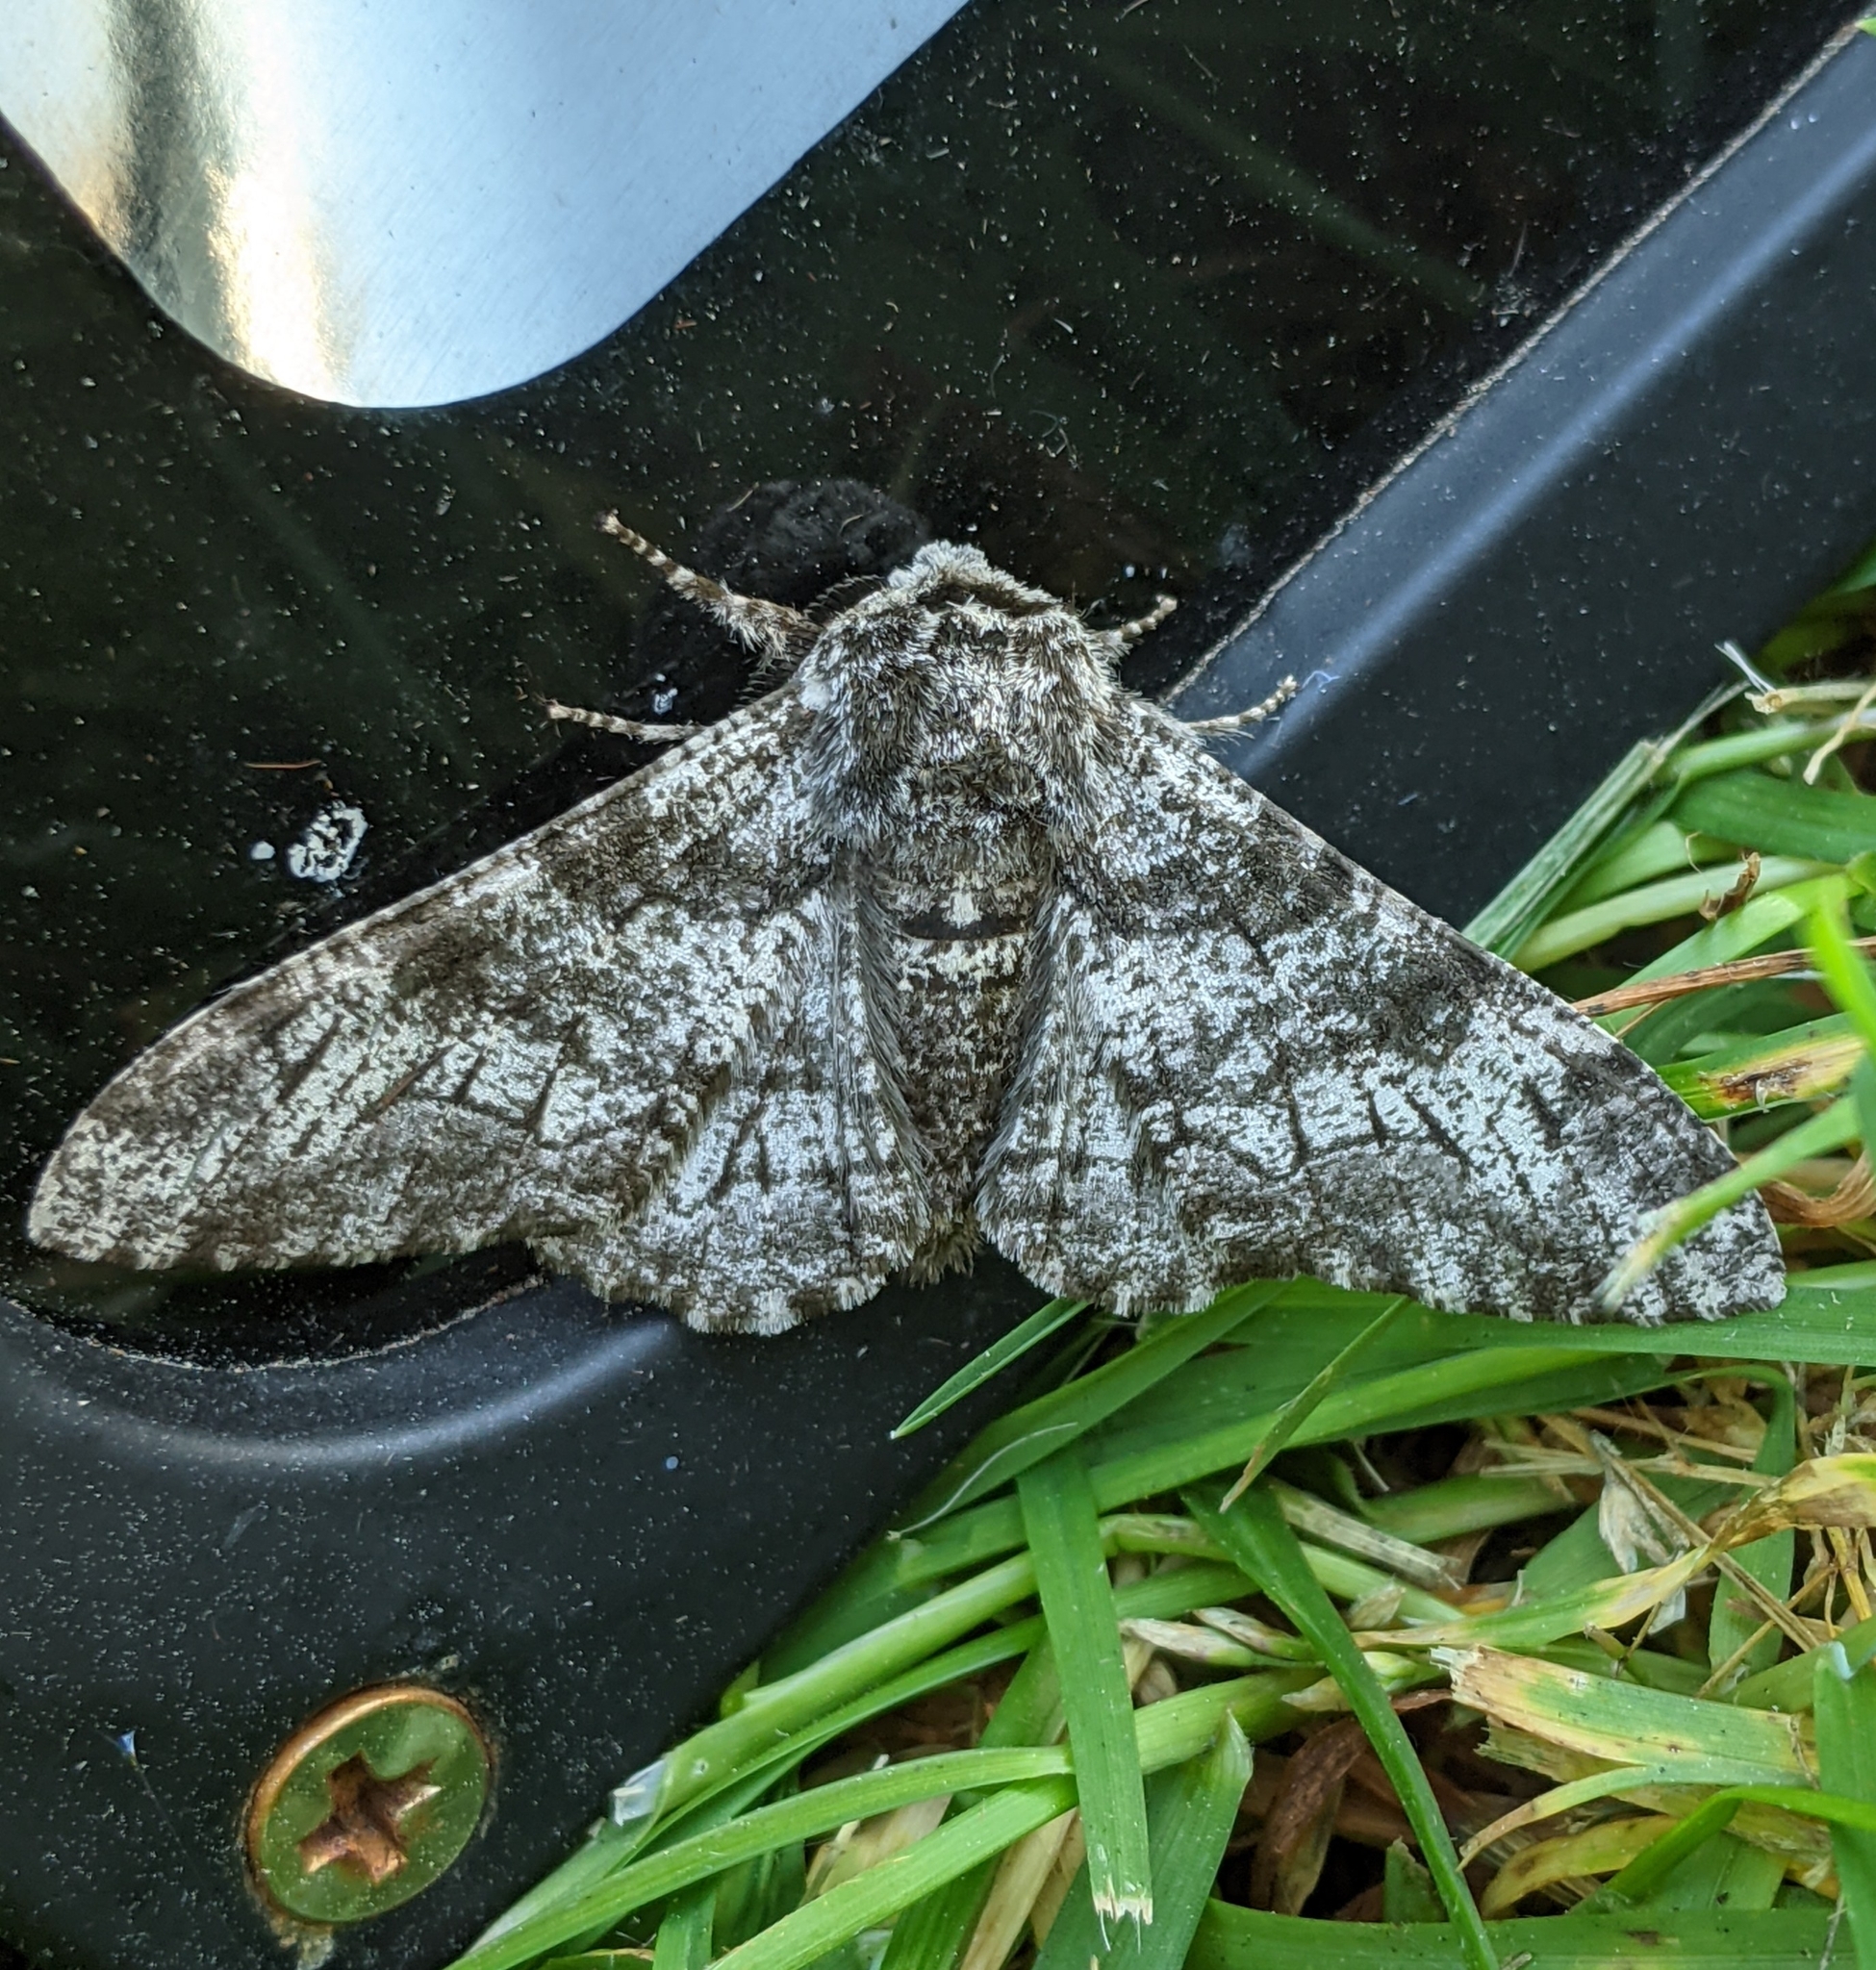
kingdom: Animalia
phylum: Arthropoda
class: Insecta
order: Lepidoptera
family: Geometridae
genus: Biston
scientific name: Biston betularia
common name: Peppered moth
